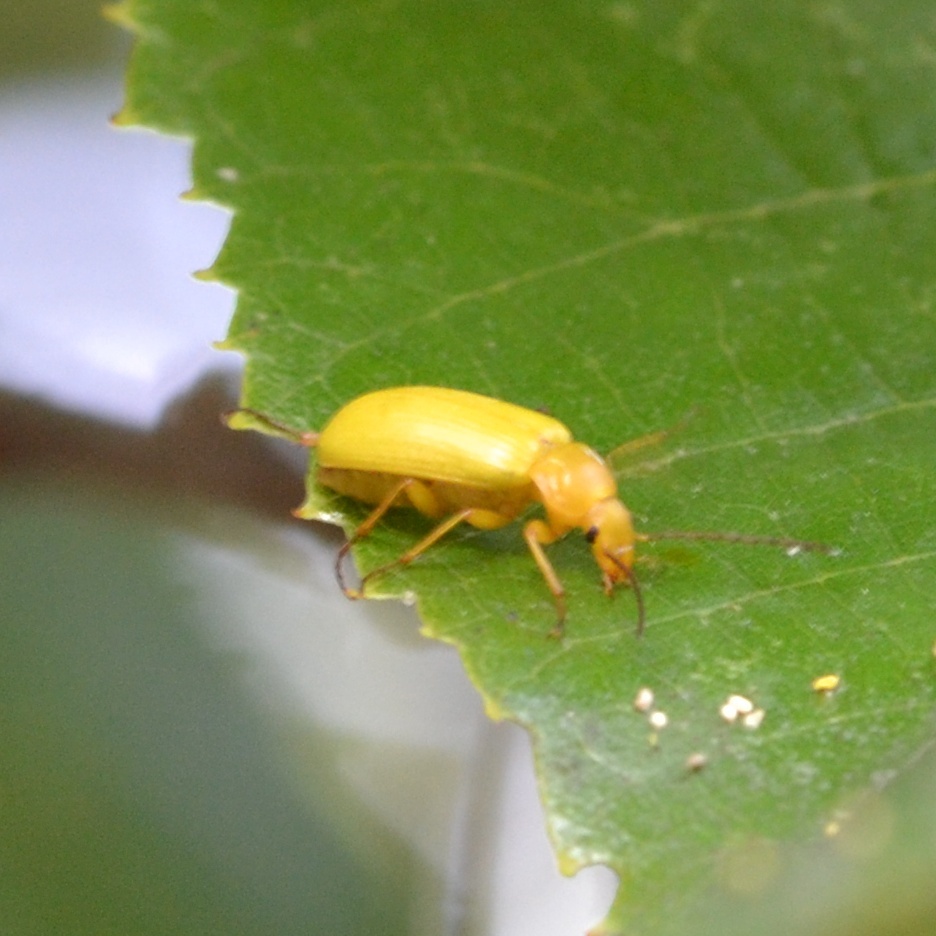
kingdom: Animalia
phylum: Arthropoda
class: Insecta
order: Coleoptera
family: Tenebrionidae
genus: Cteniopus
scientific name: Cteniopus sulphureus
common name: Sulphur beetle
